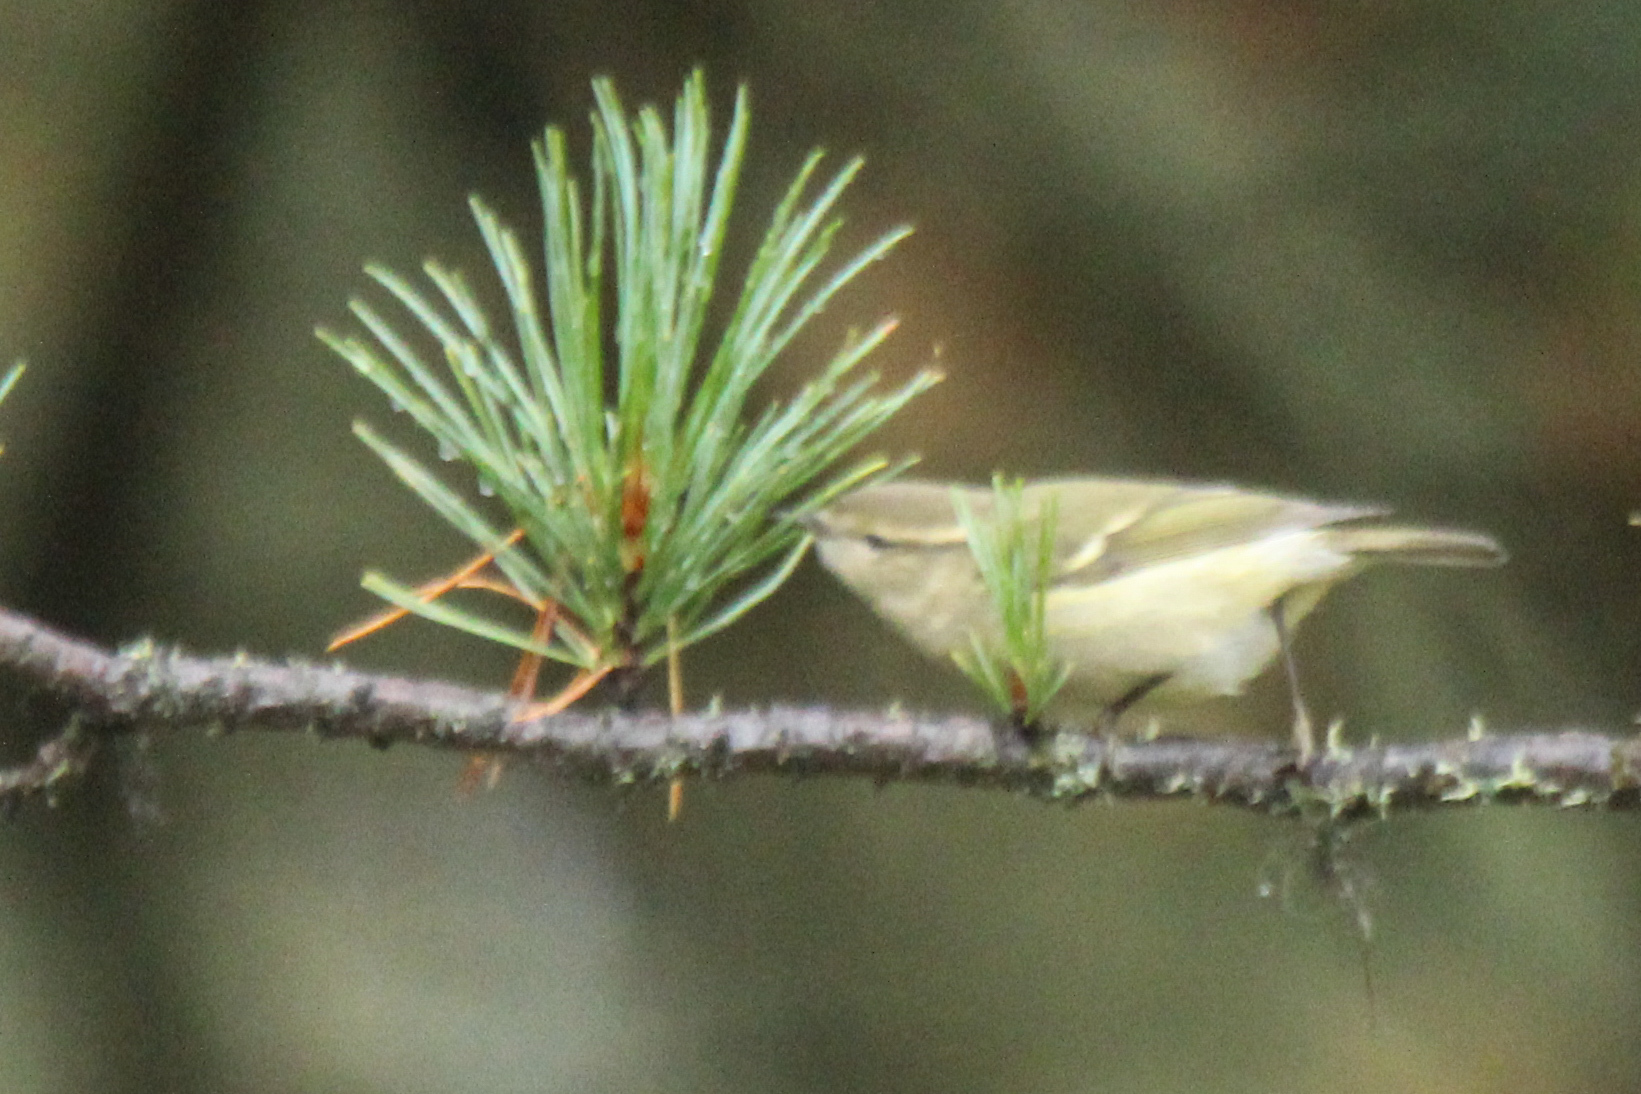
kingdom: Animalia
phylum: Chordata
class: Aves
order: Passeriformes
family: Phylloscopidae
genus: Phylloscopus
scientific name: Phylloscopus humei
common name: Hume's leaf warbler
